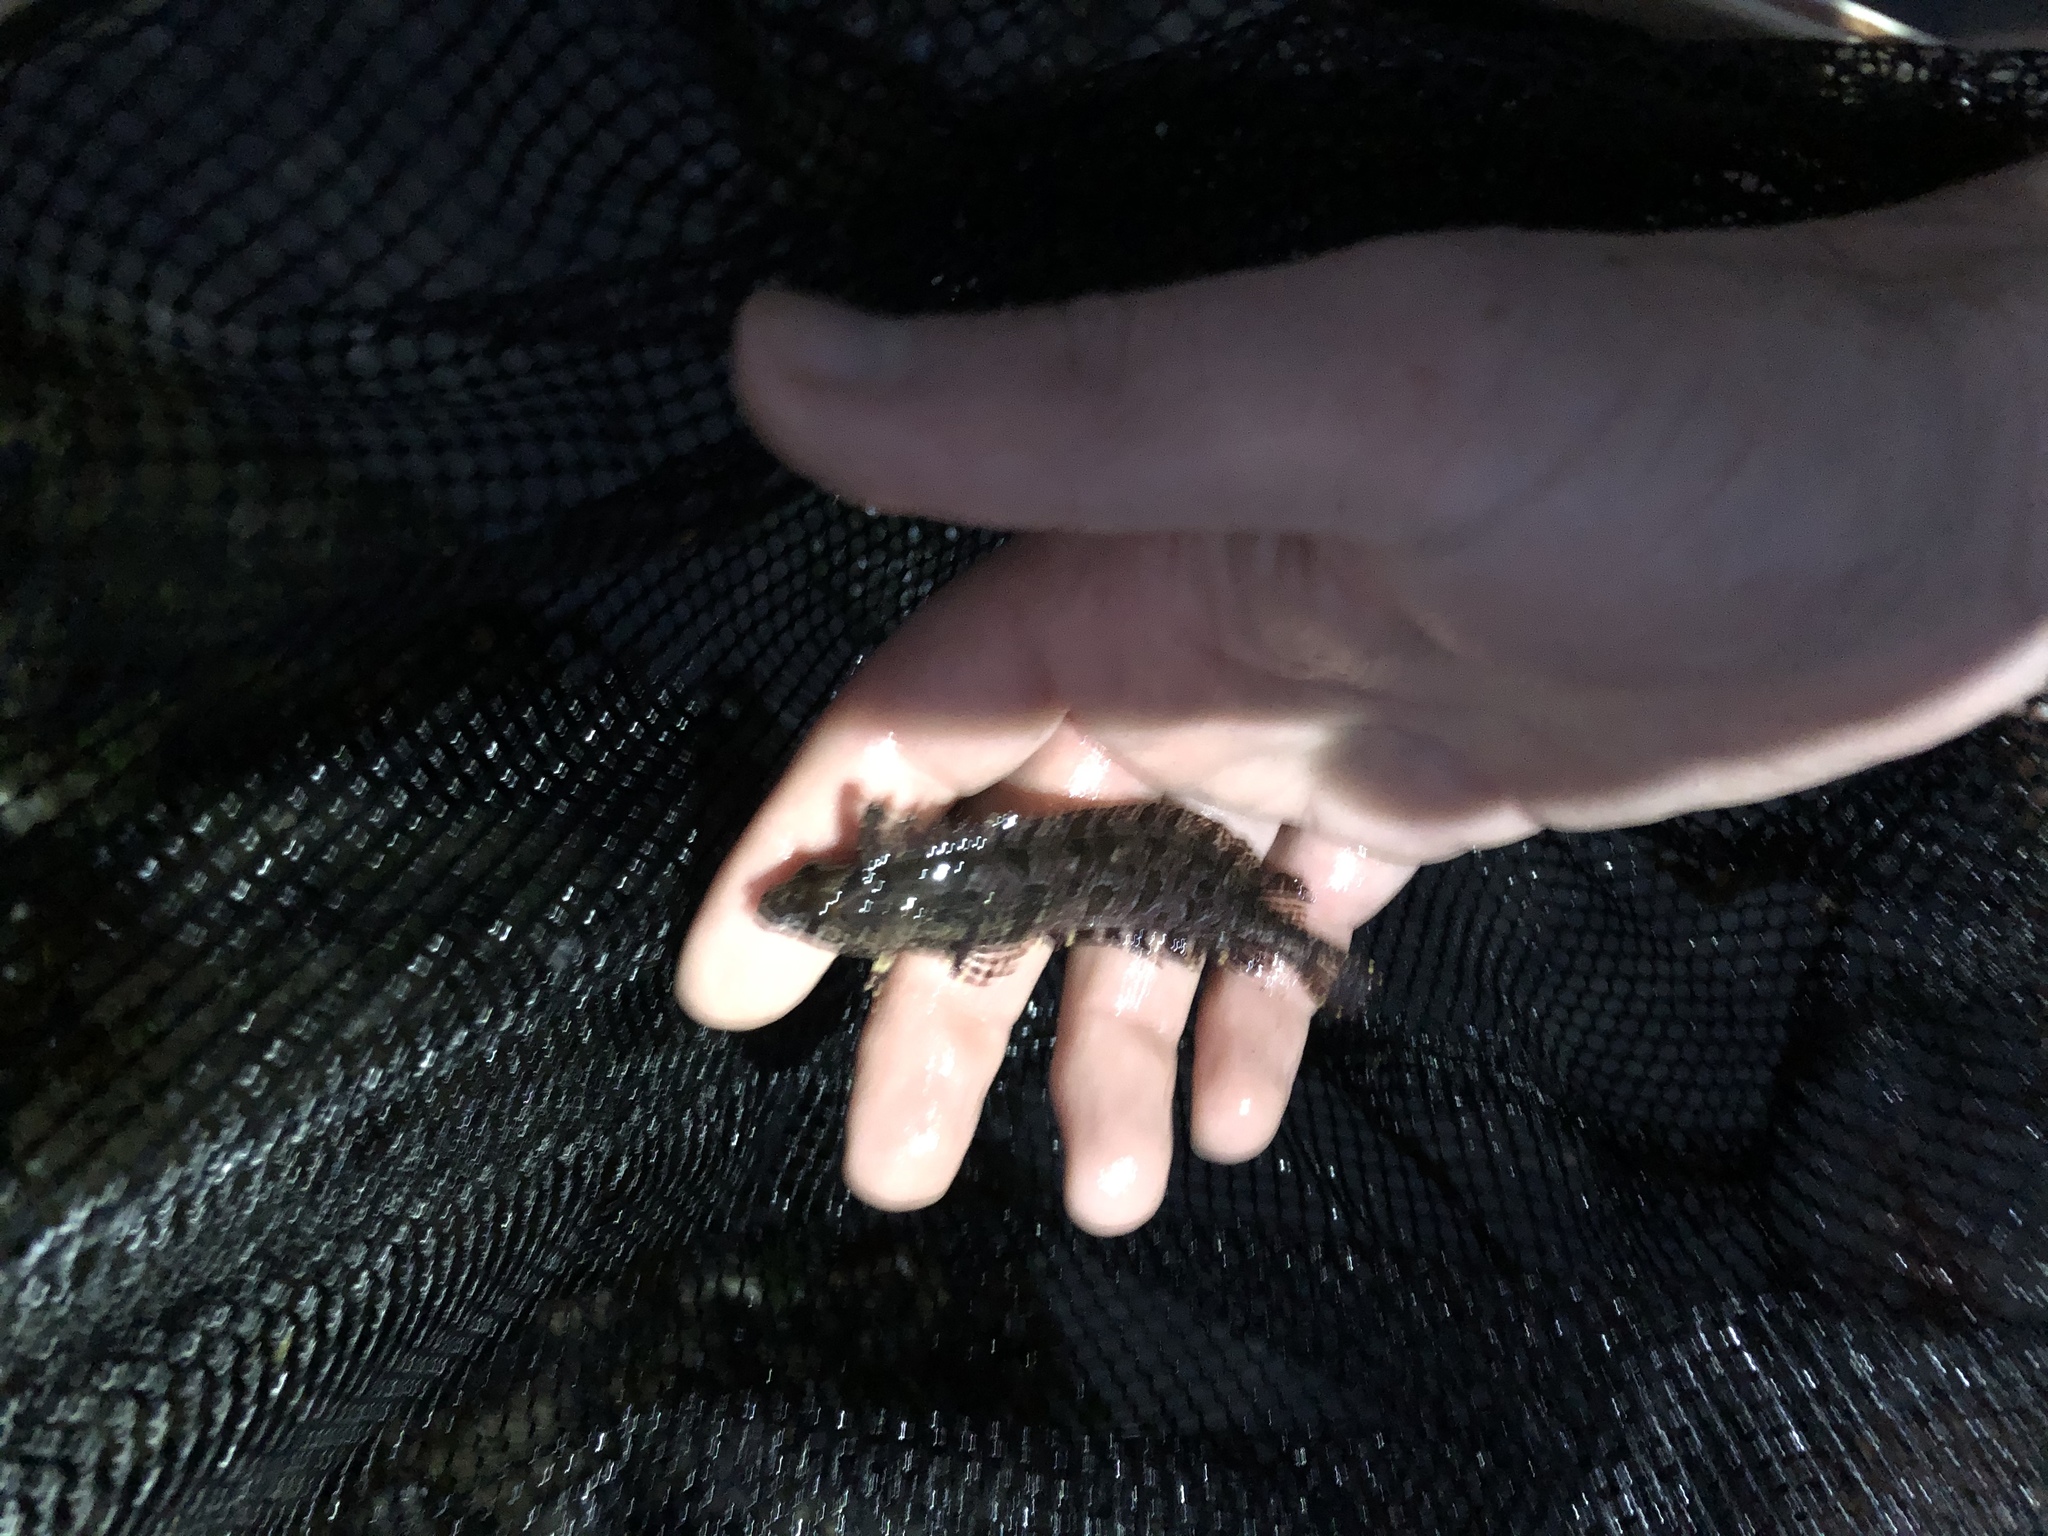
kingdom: Animalia
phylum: Chordata
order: Perciformes
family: Clinidae
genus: Gibbonsia
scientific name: Gibbonsia elegans
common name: Spotted kelpfish
